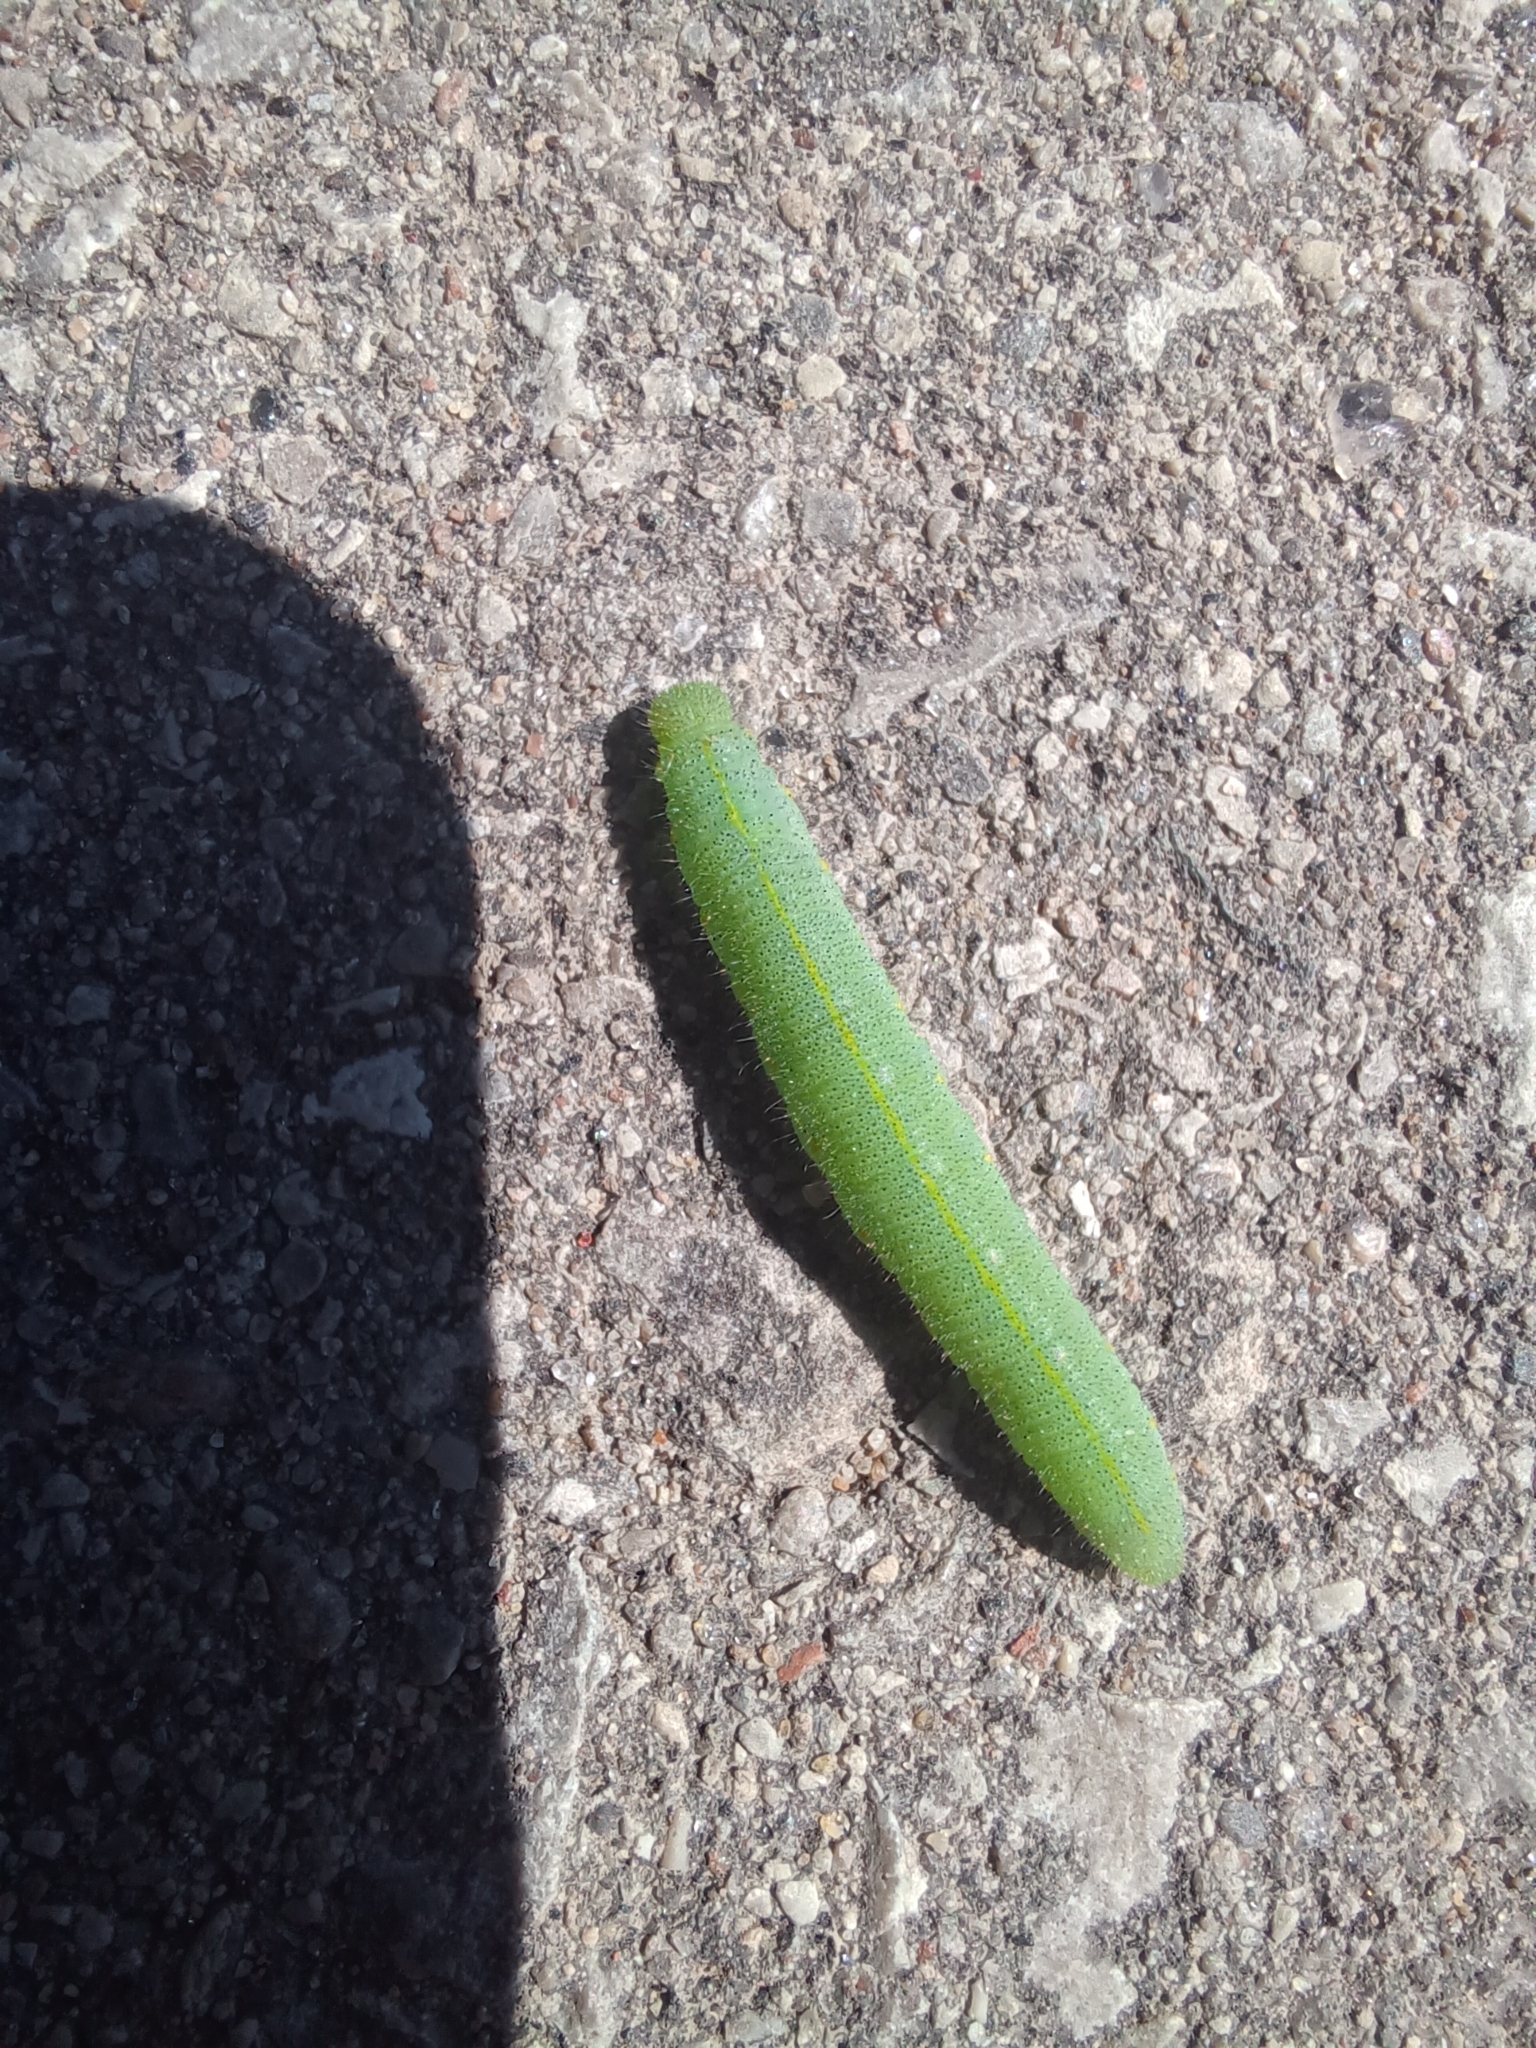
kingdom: Animalia
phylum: Arthropoda
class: Insecta
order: Lepidoptera
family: Pieridae
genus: Pieris
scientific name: Pieris rapae
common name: Small white
